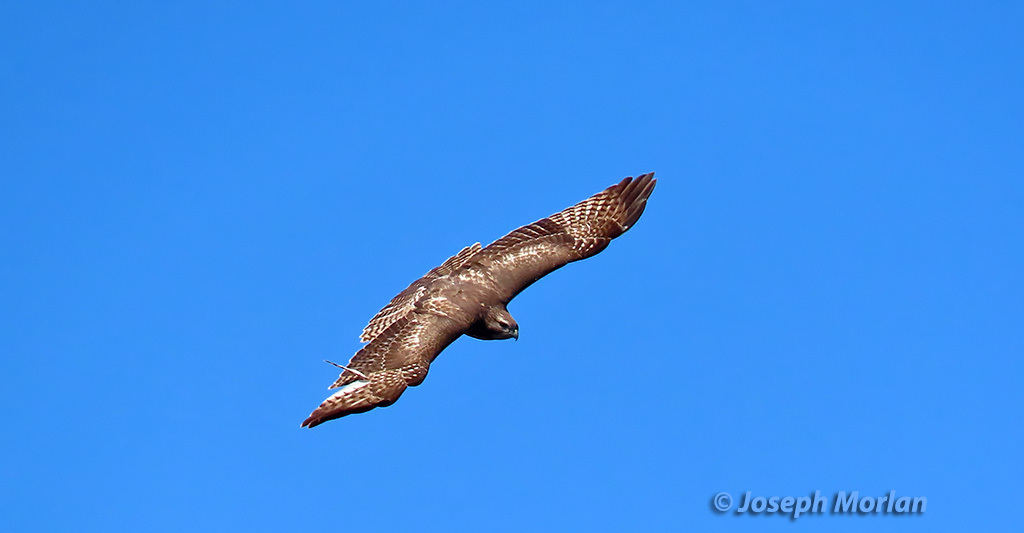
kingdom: Animalia
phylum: Chordata
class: Aves
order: Accipitriformes
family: Accipitridae
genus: Buteo
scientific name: Buteo jamaicensis
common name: Red-tailed hawk
